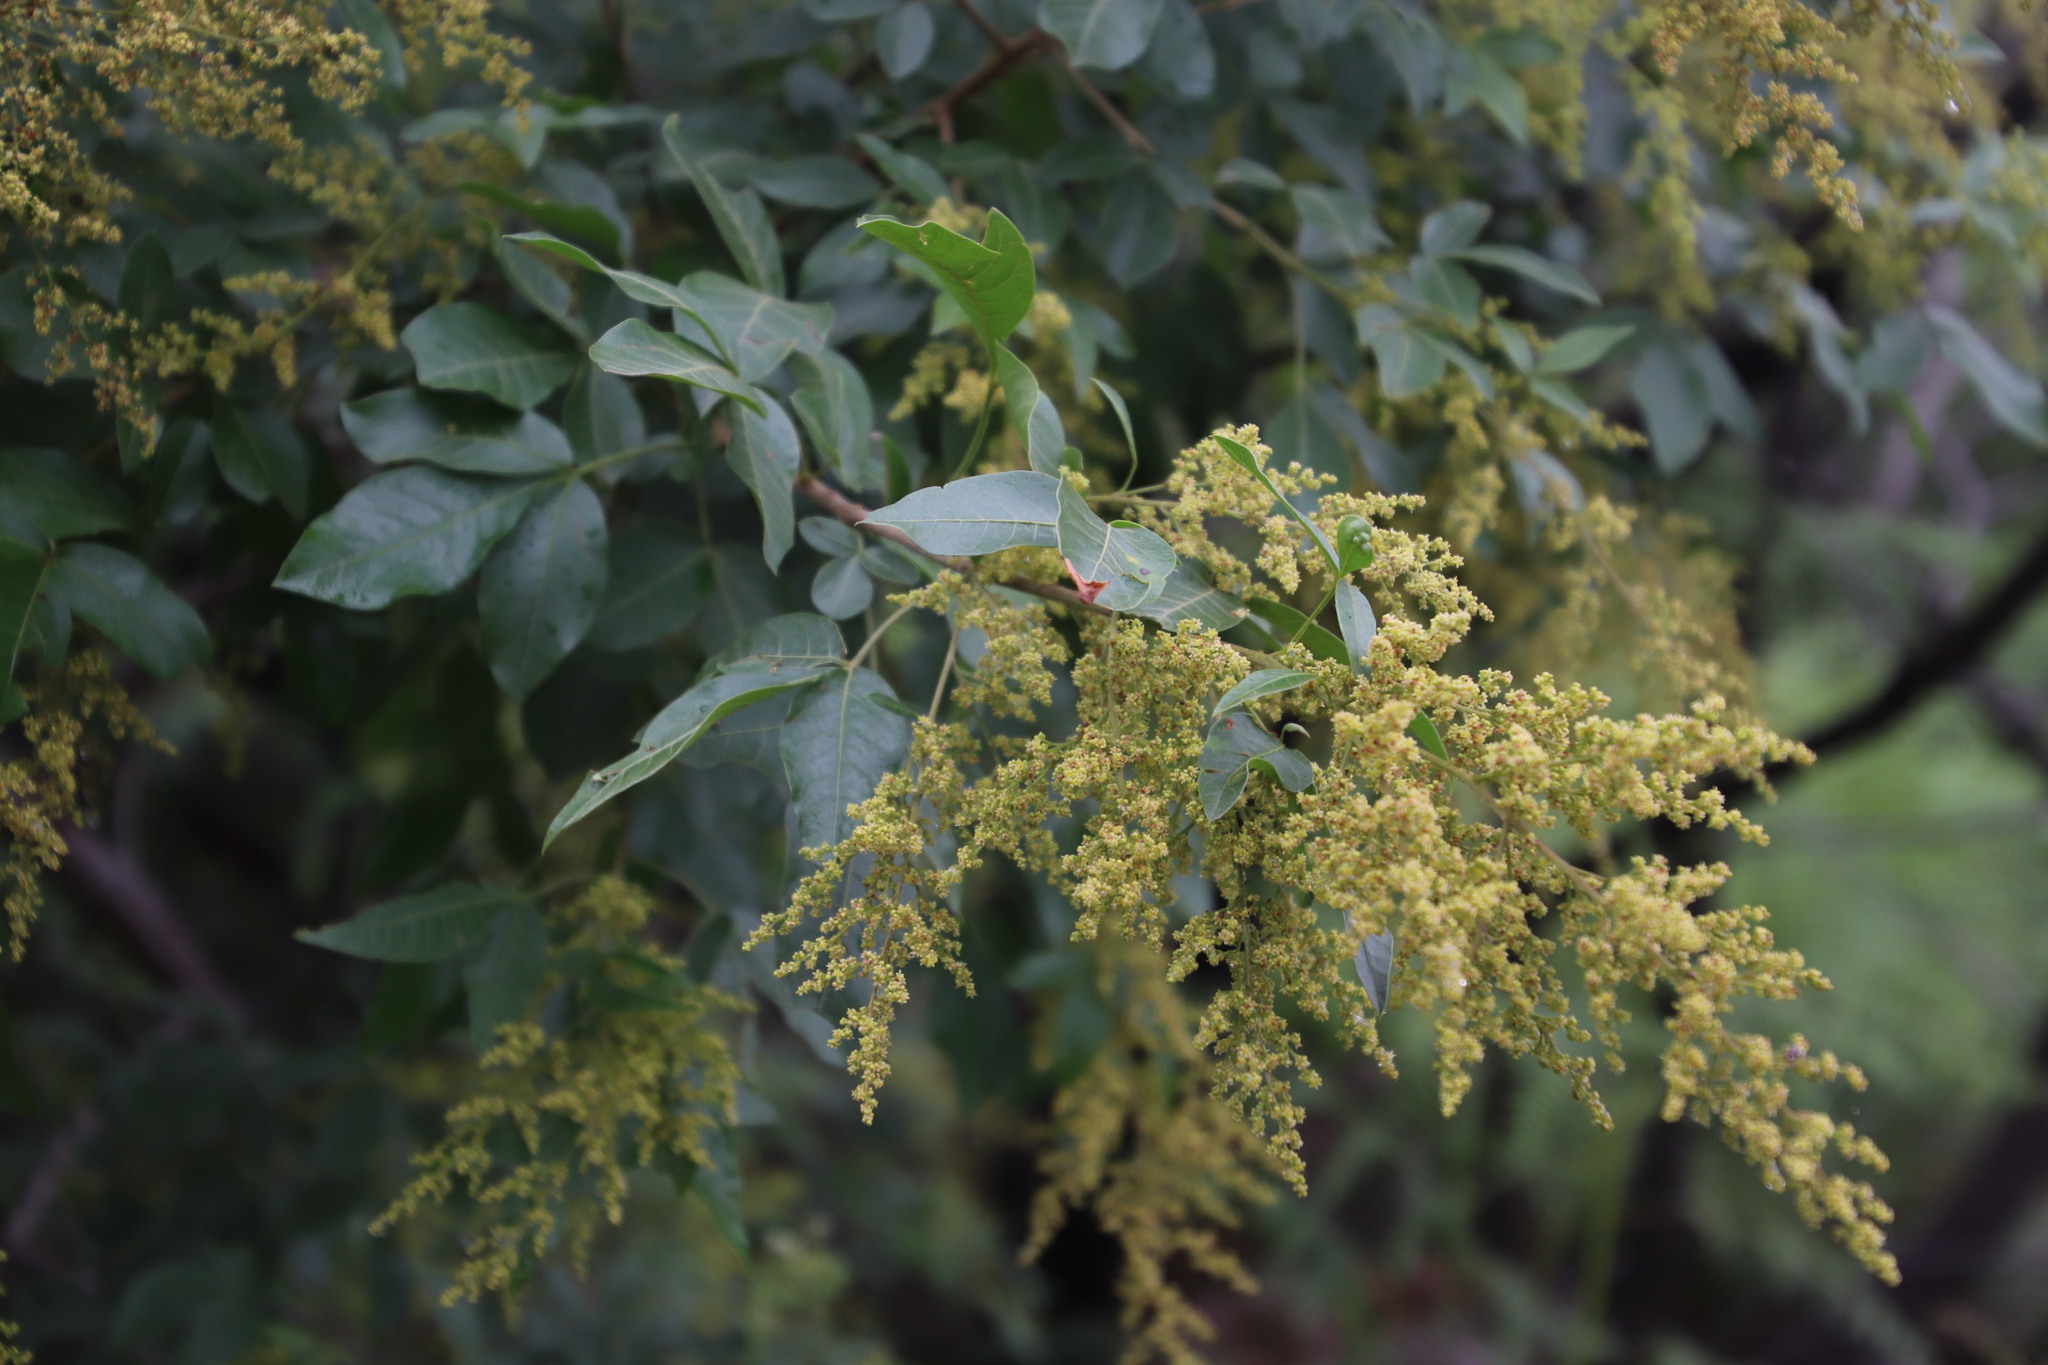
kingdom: Plantae
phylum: Tracheophyta
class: Magnoliopsida
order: Sapindales
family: Anacardiaceae
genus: Searsia
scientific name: Searsia pyroides
